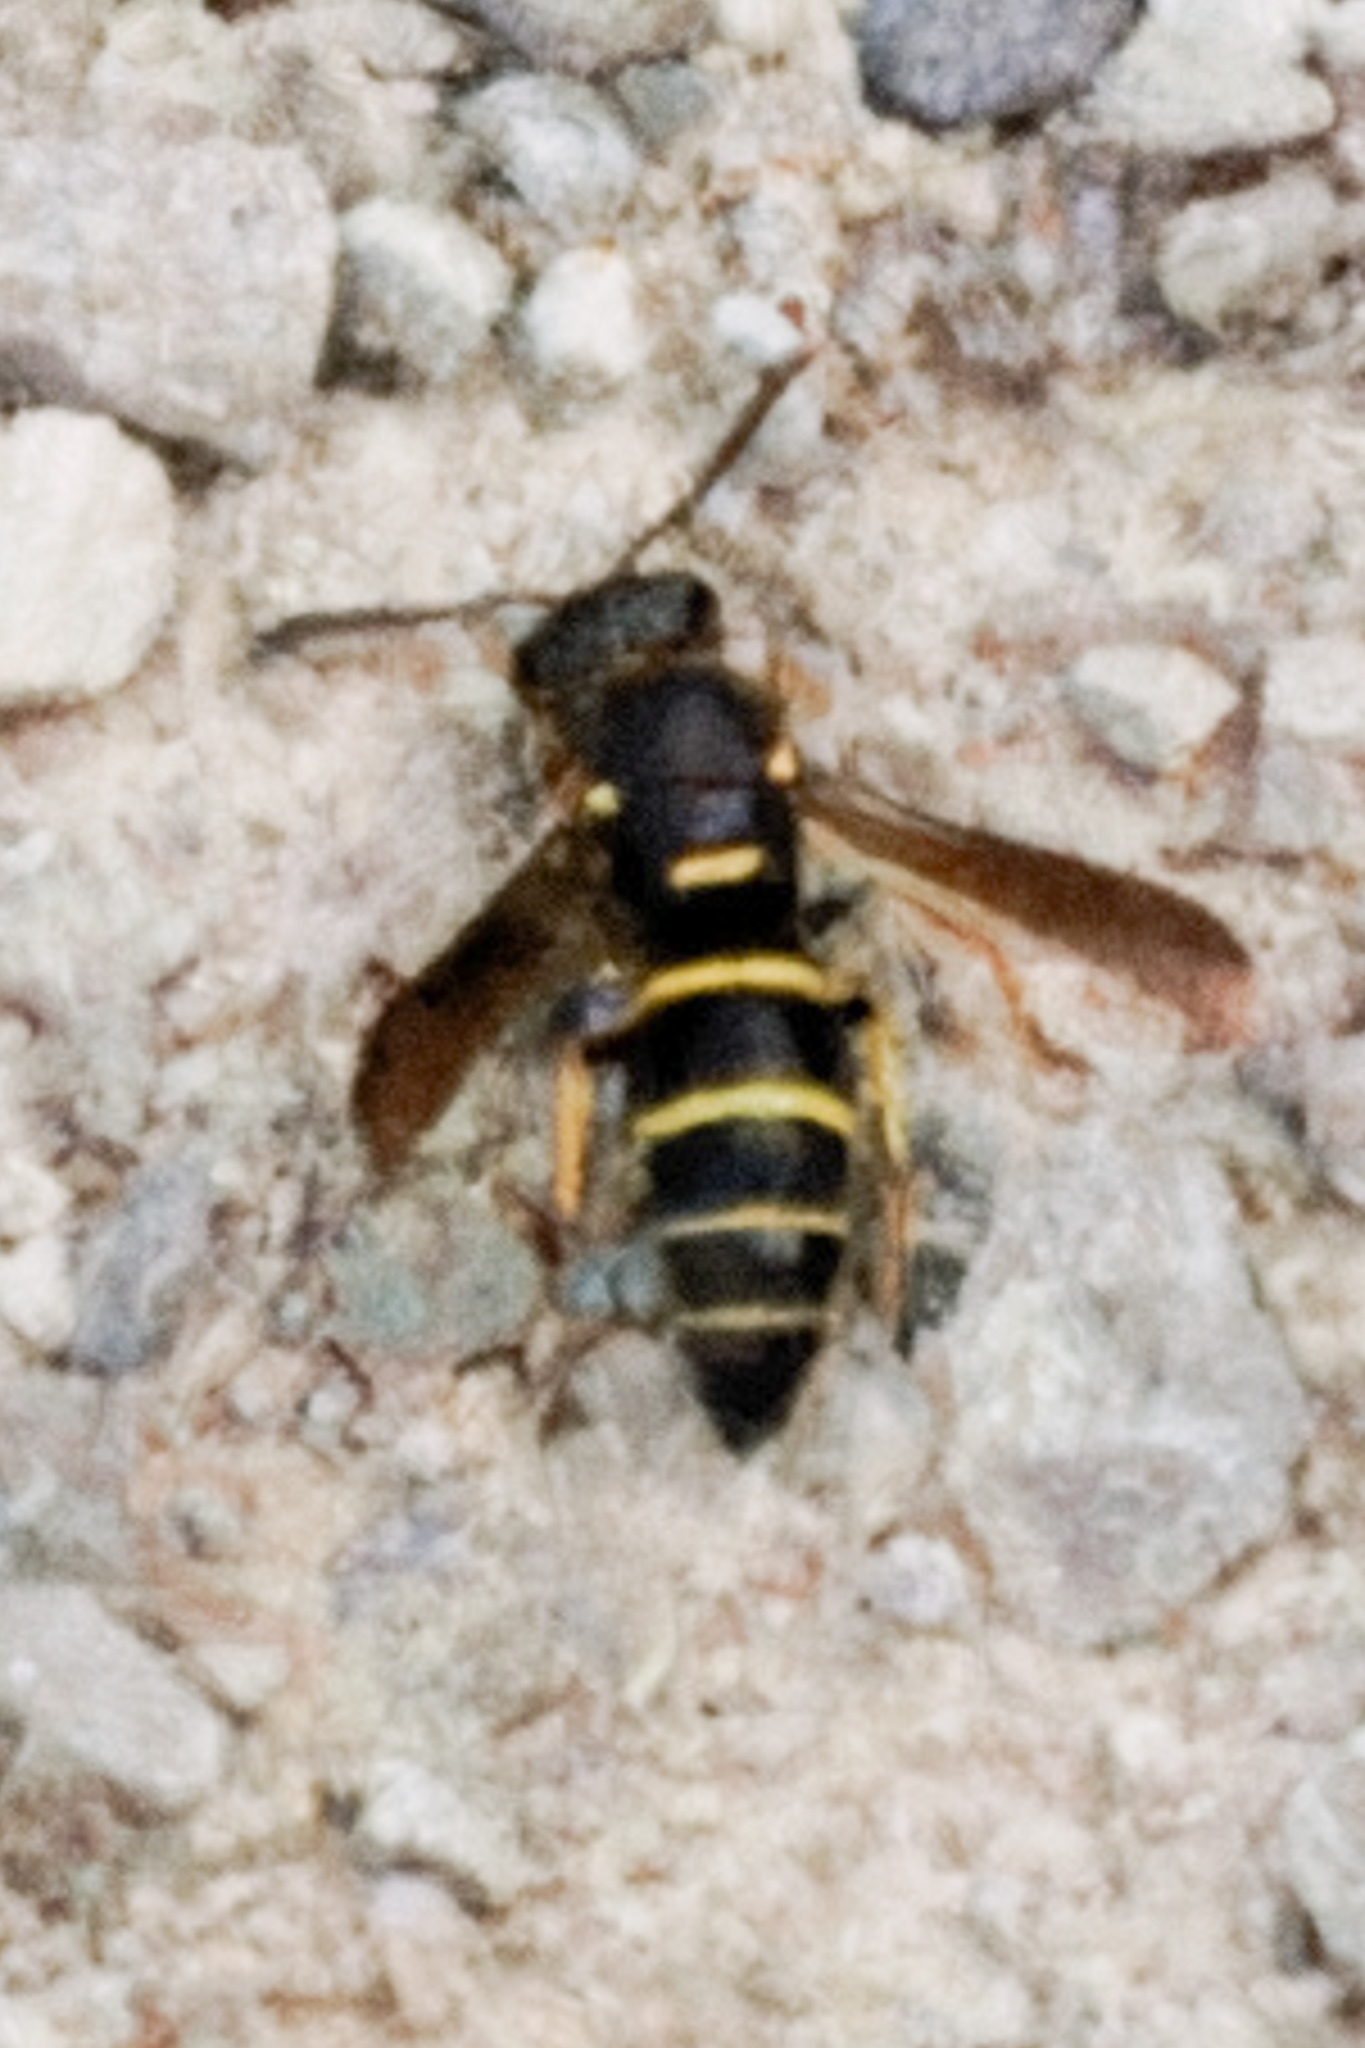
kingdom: Animalia
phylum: Arthropoda
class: Insecta
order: Hymenoptera
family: Eumenidae
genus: Euodynerus
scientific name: Euodynerus foraminatus
